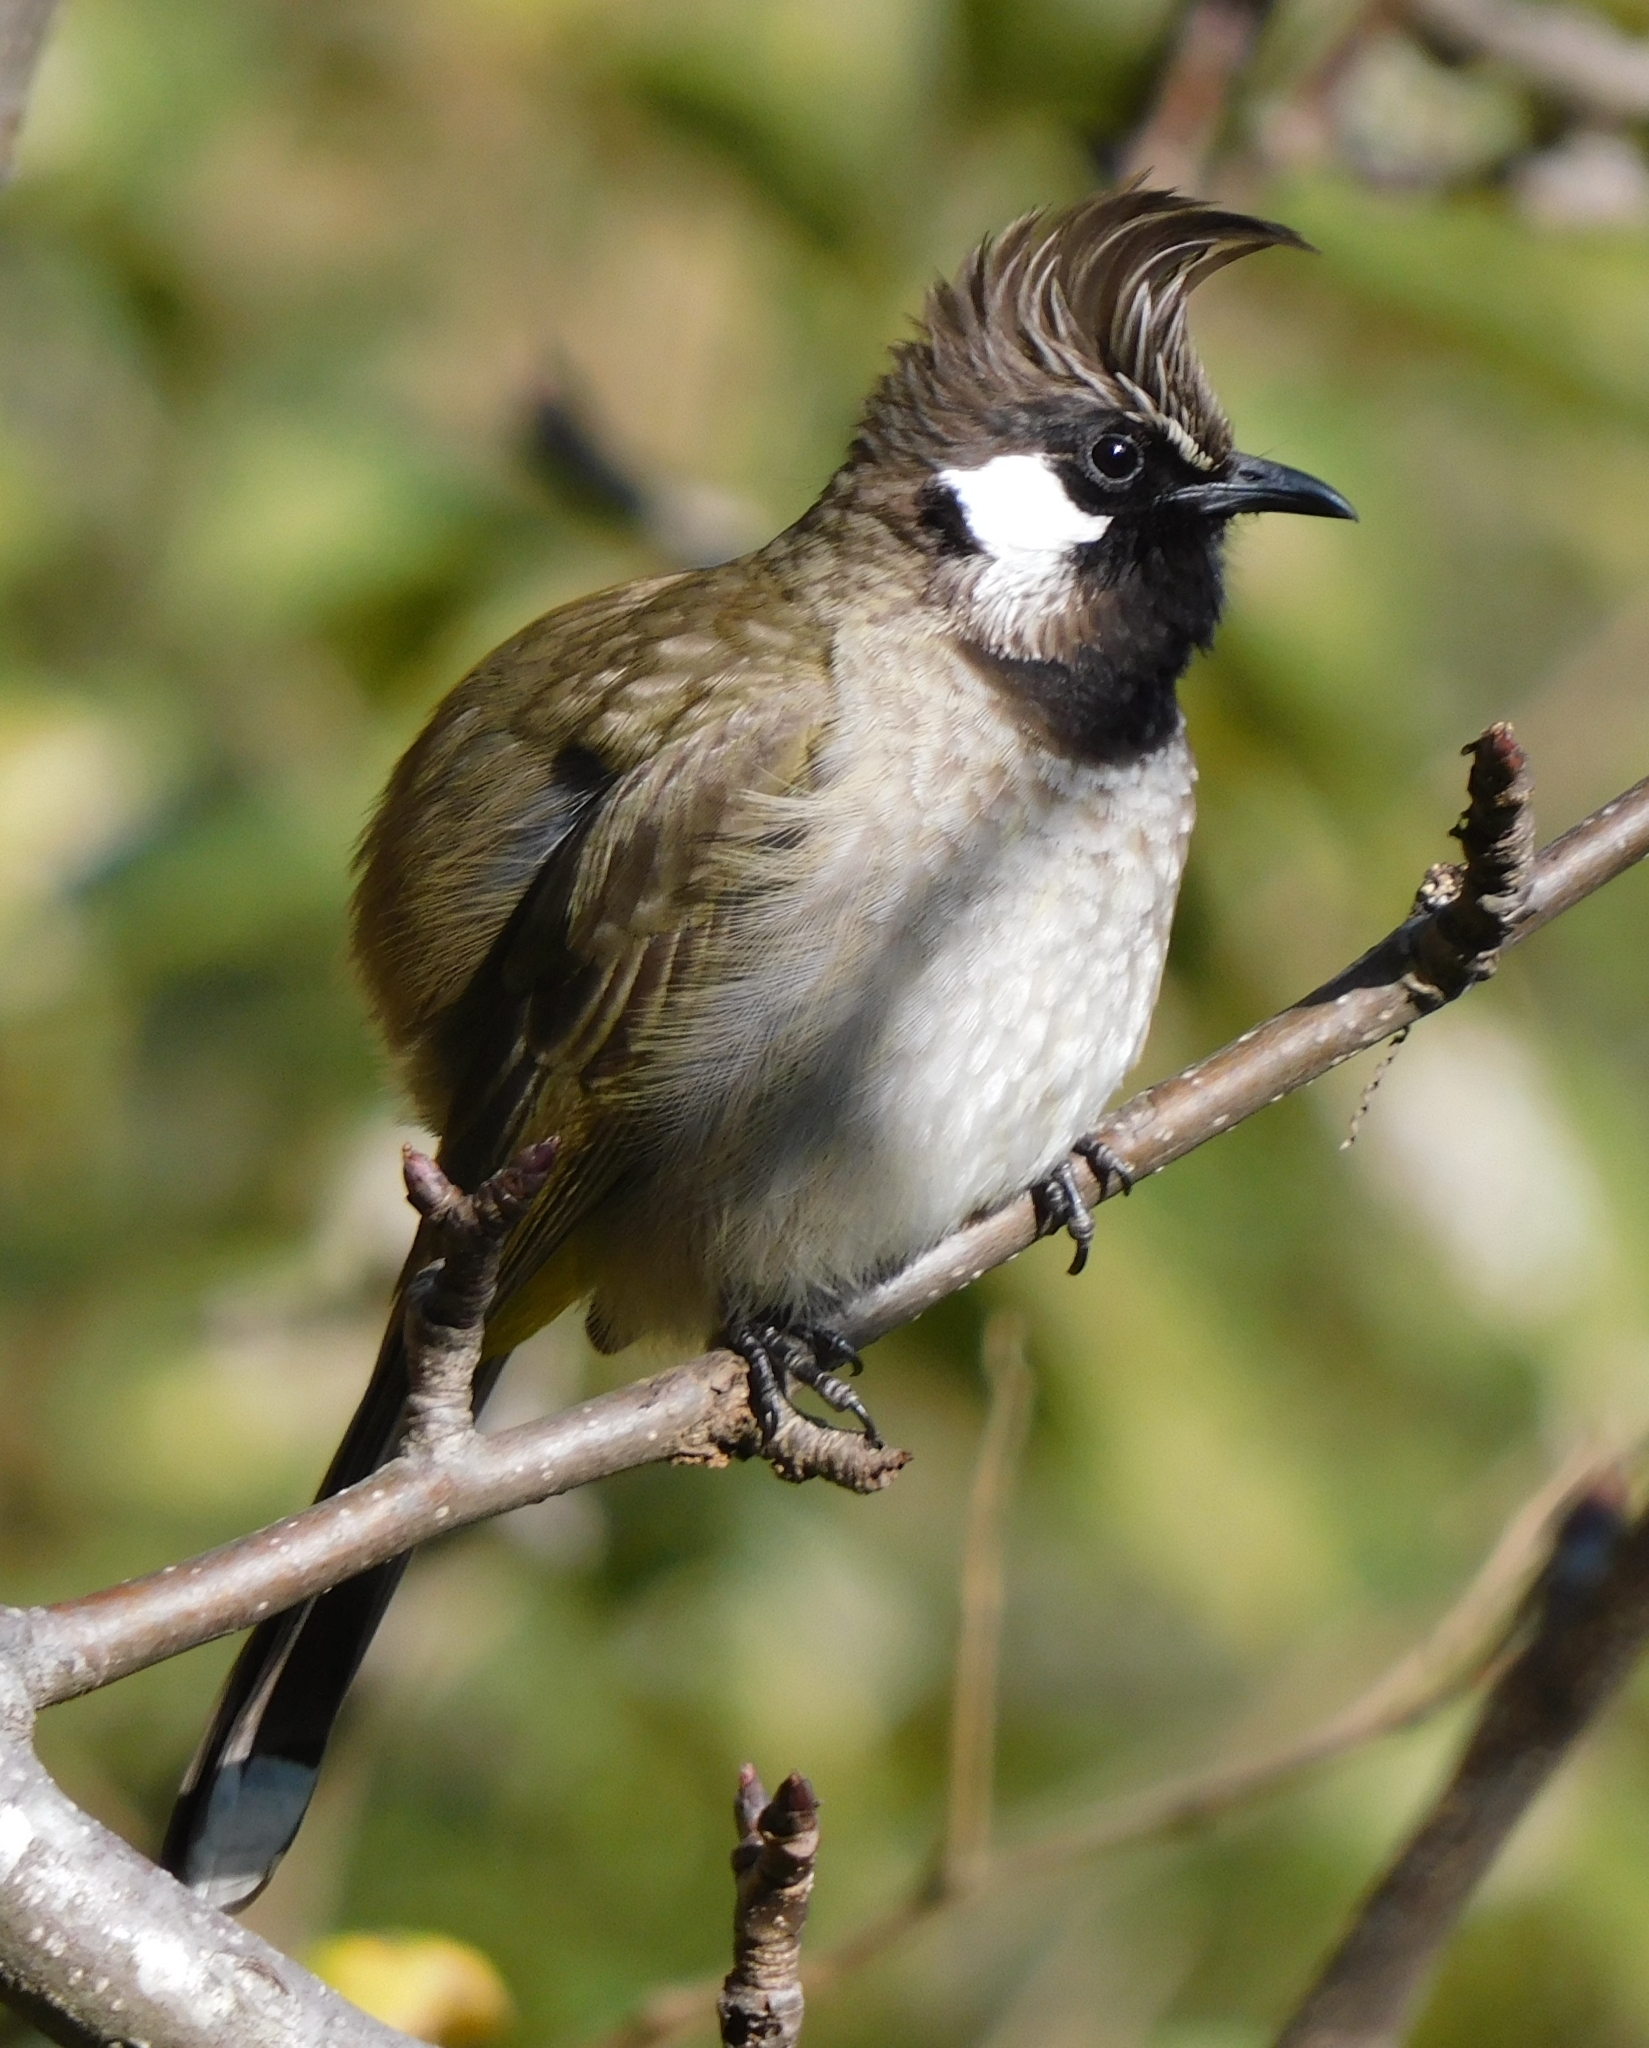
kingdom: Animalia
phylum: Chordata
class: Aves
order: Passeriformes
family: Pycnonotidae
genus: Pycnonotus
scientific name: Pycnonotus leucogenys
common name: Himalayan bulbul
